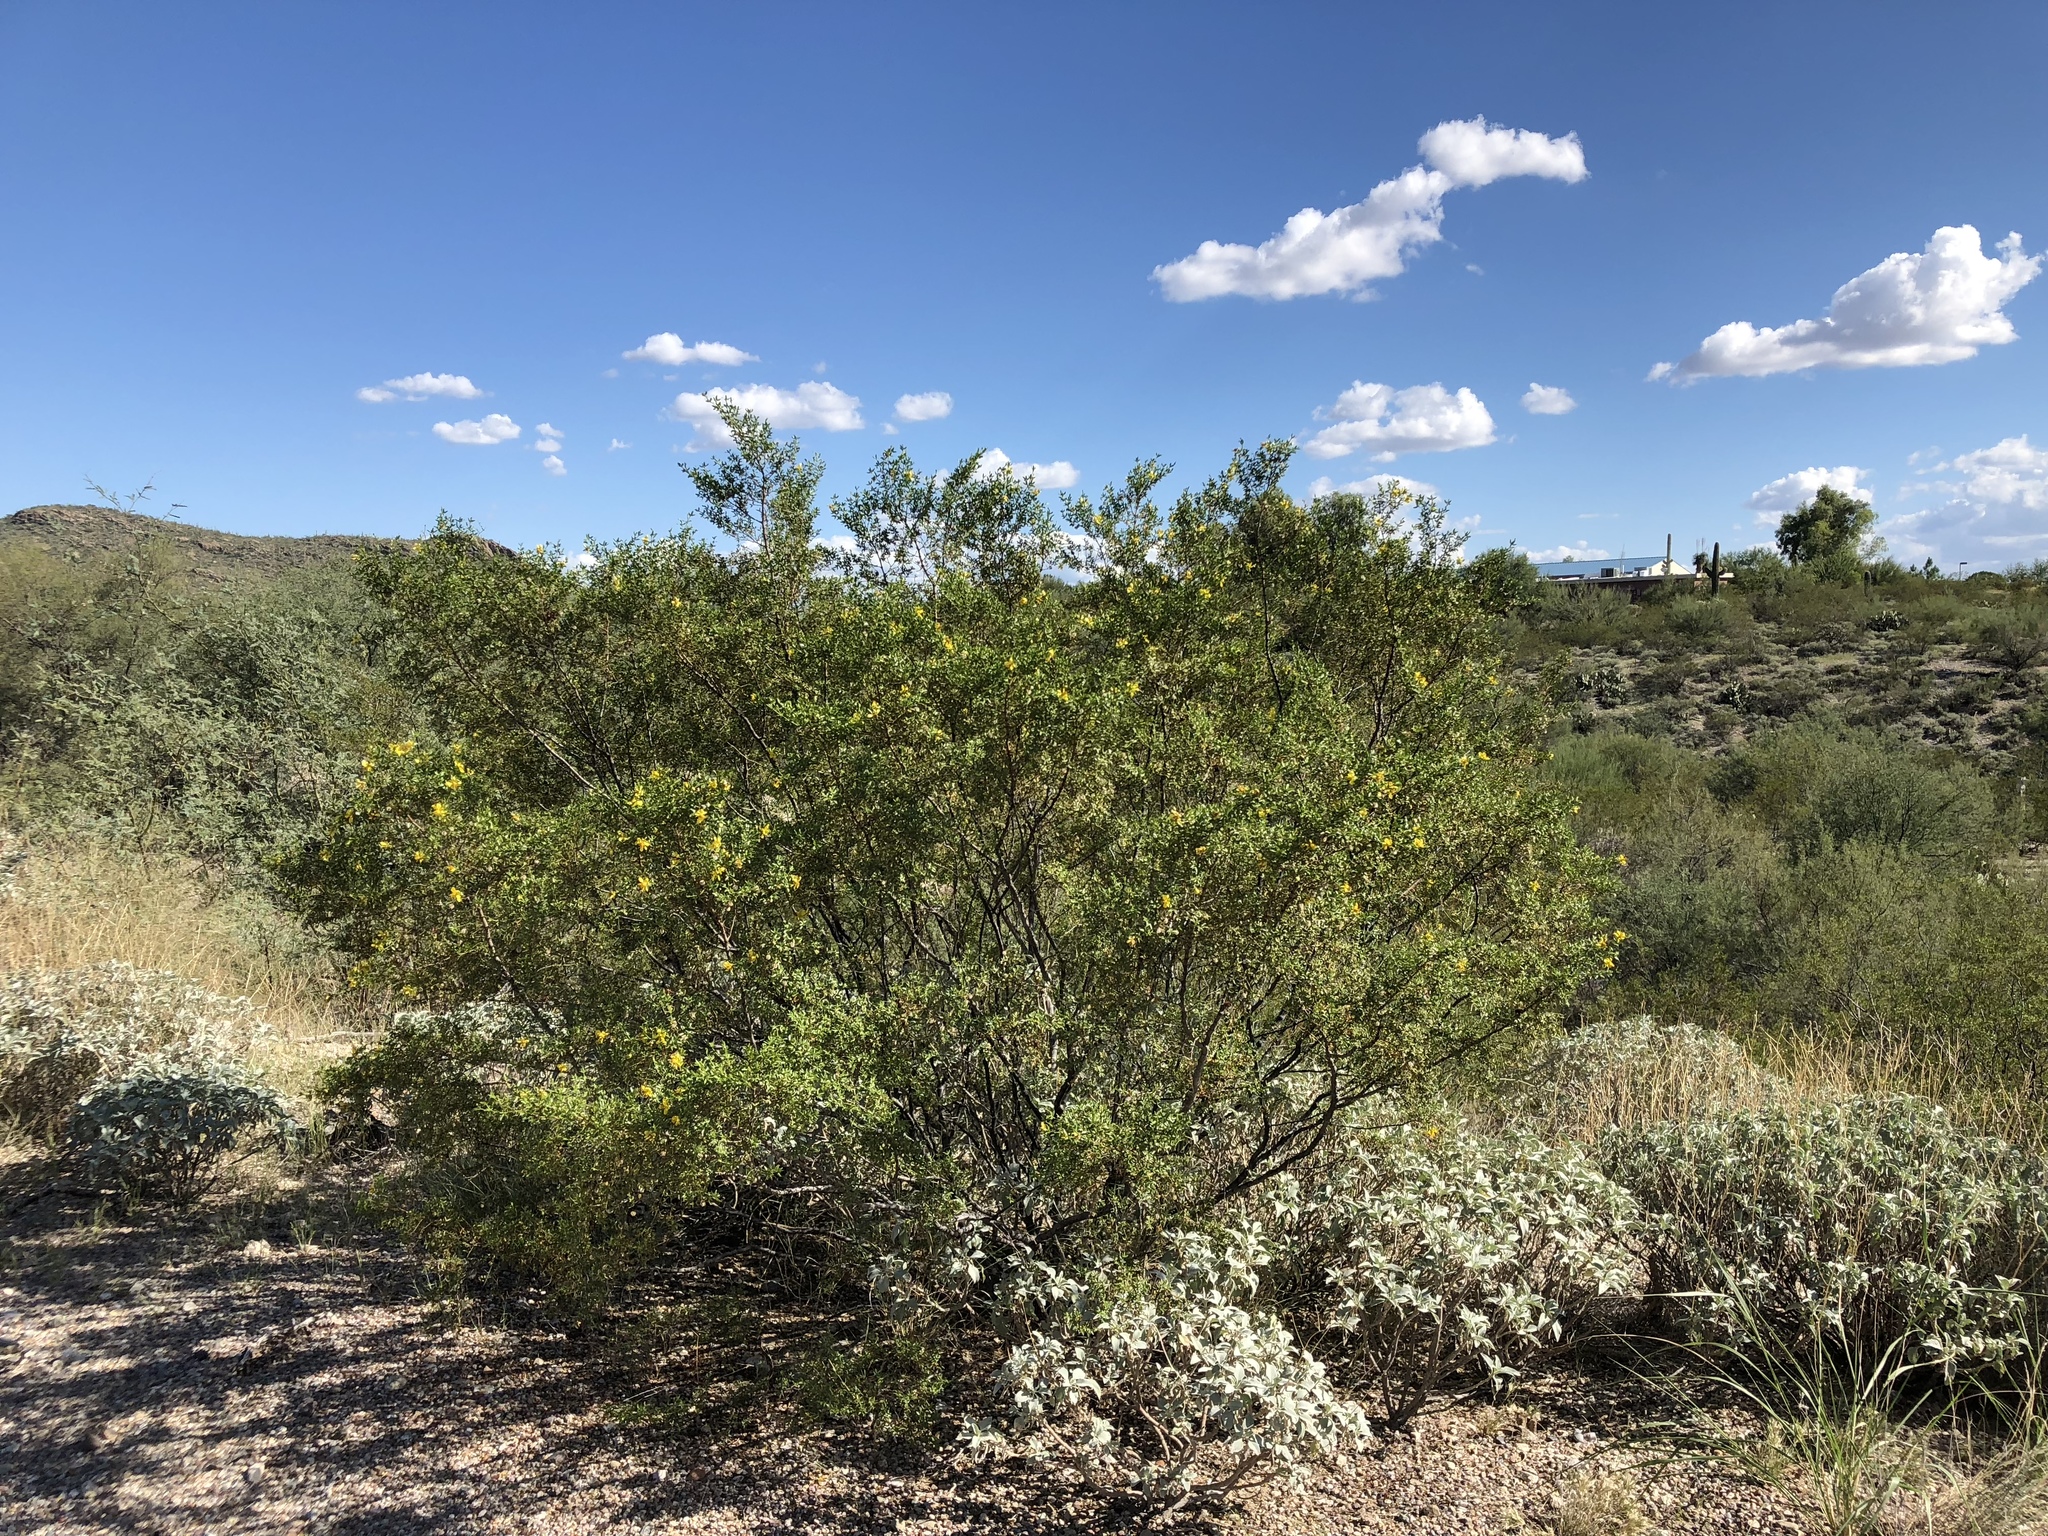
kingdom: Plantae
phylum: Tracheophyta
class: Magnoliopsida
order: Zygophyllales
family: Zygophyllaceae
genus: Larrea
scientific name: Larrea tridentata
